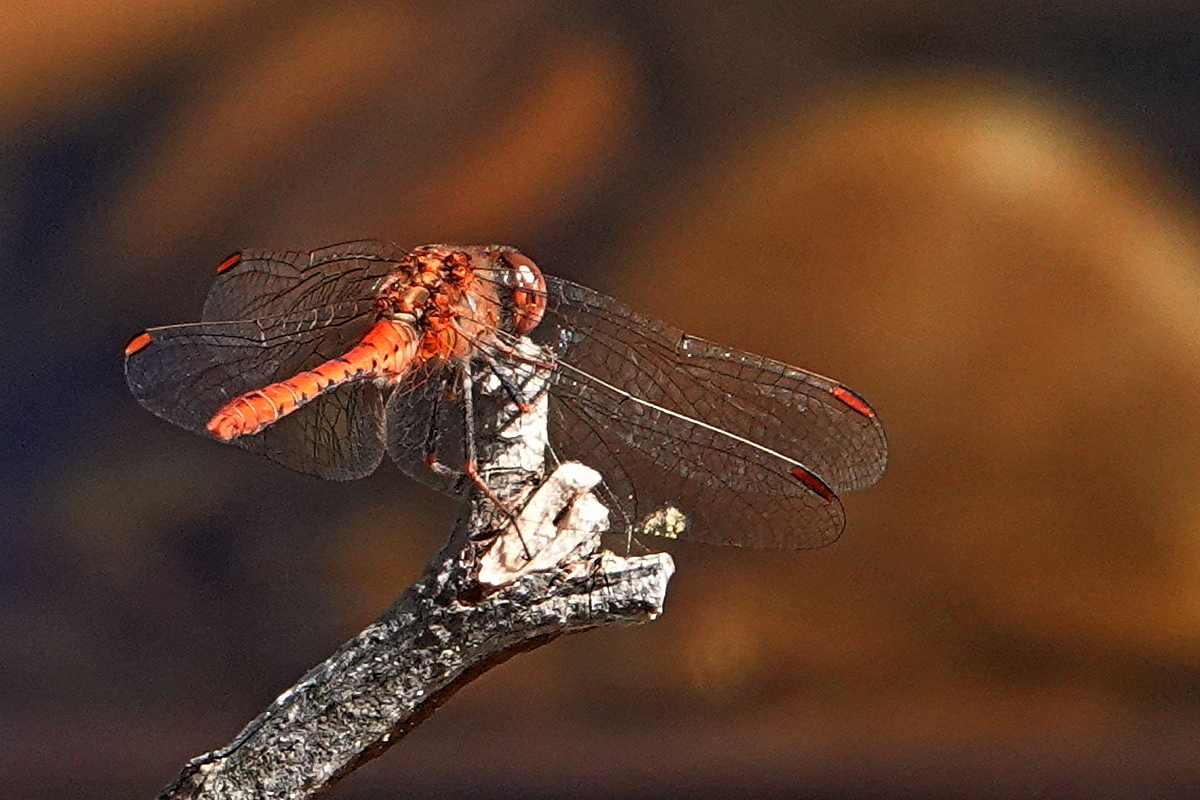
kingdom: Animalia
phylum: Arthropoda
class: Insecta
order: Odonata
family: Libellulidae
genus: Diplacodes
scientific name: Diplacodes bipunctata
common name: Red percher dragonfly
